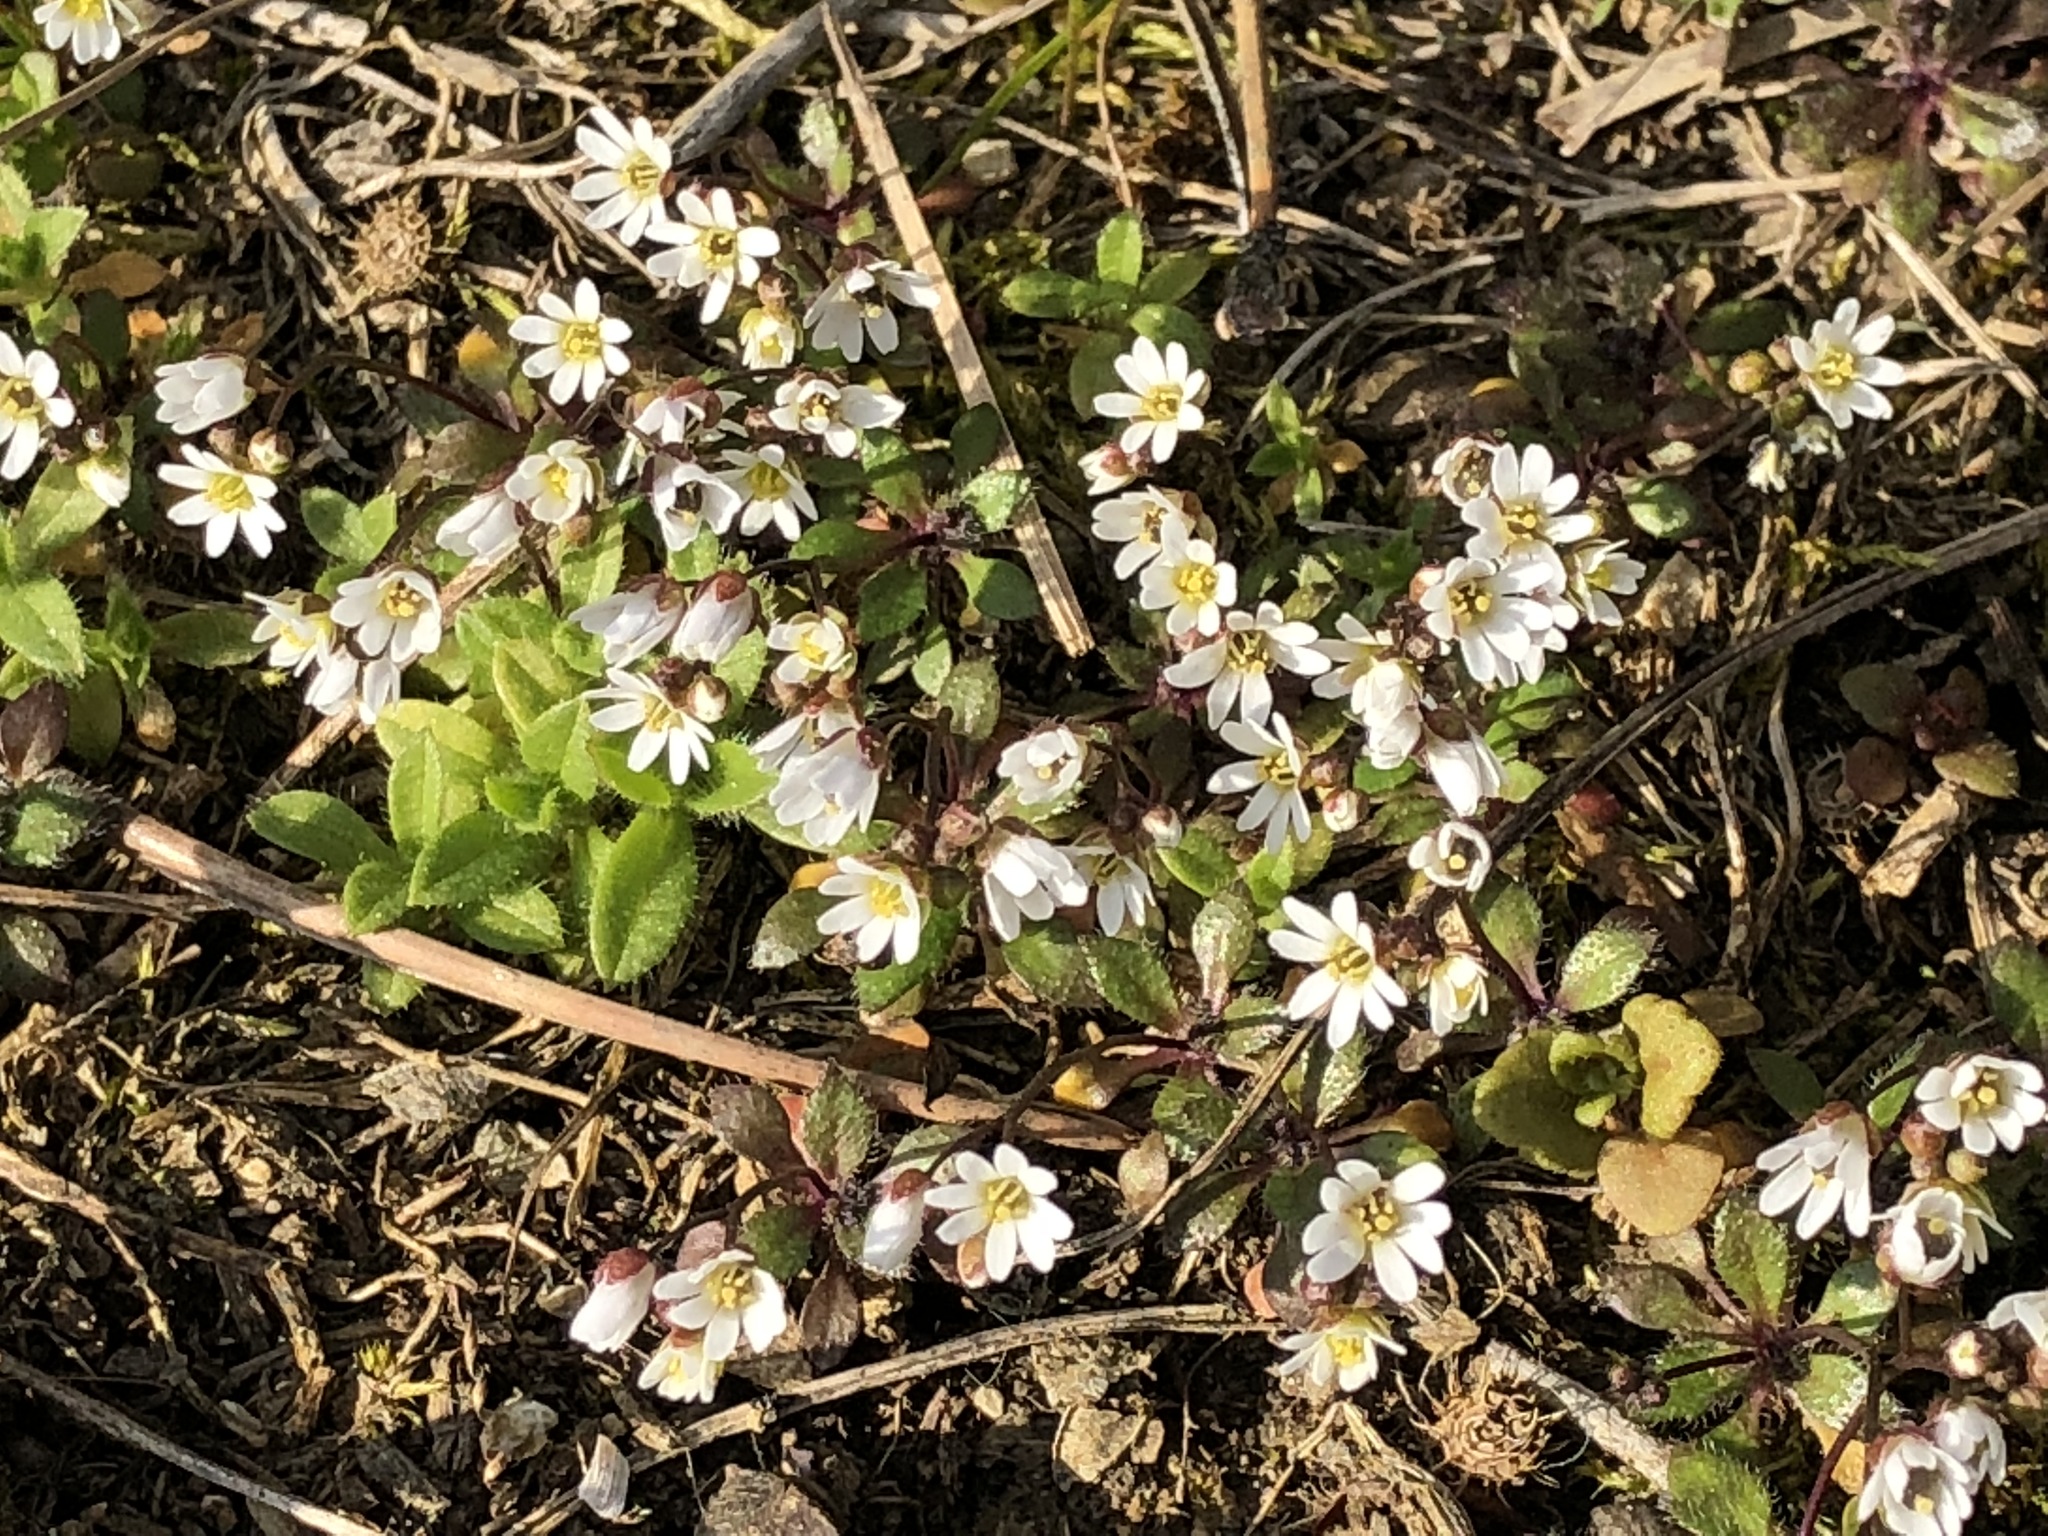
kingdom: Plantae
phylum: Tracheophyta
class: Magnoliopsida
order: Brassicales
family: Brassicaceae
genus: Draba
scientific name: Draba verna
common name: Spring draba
